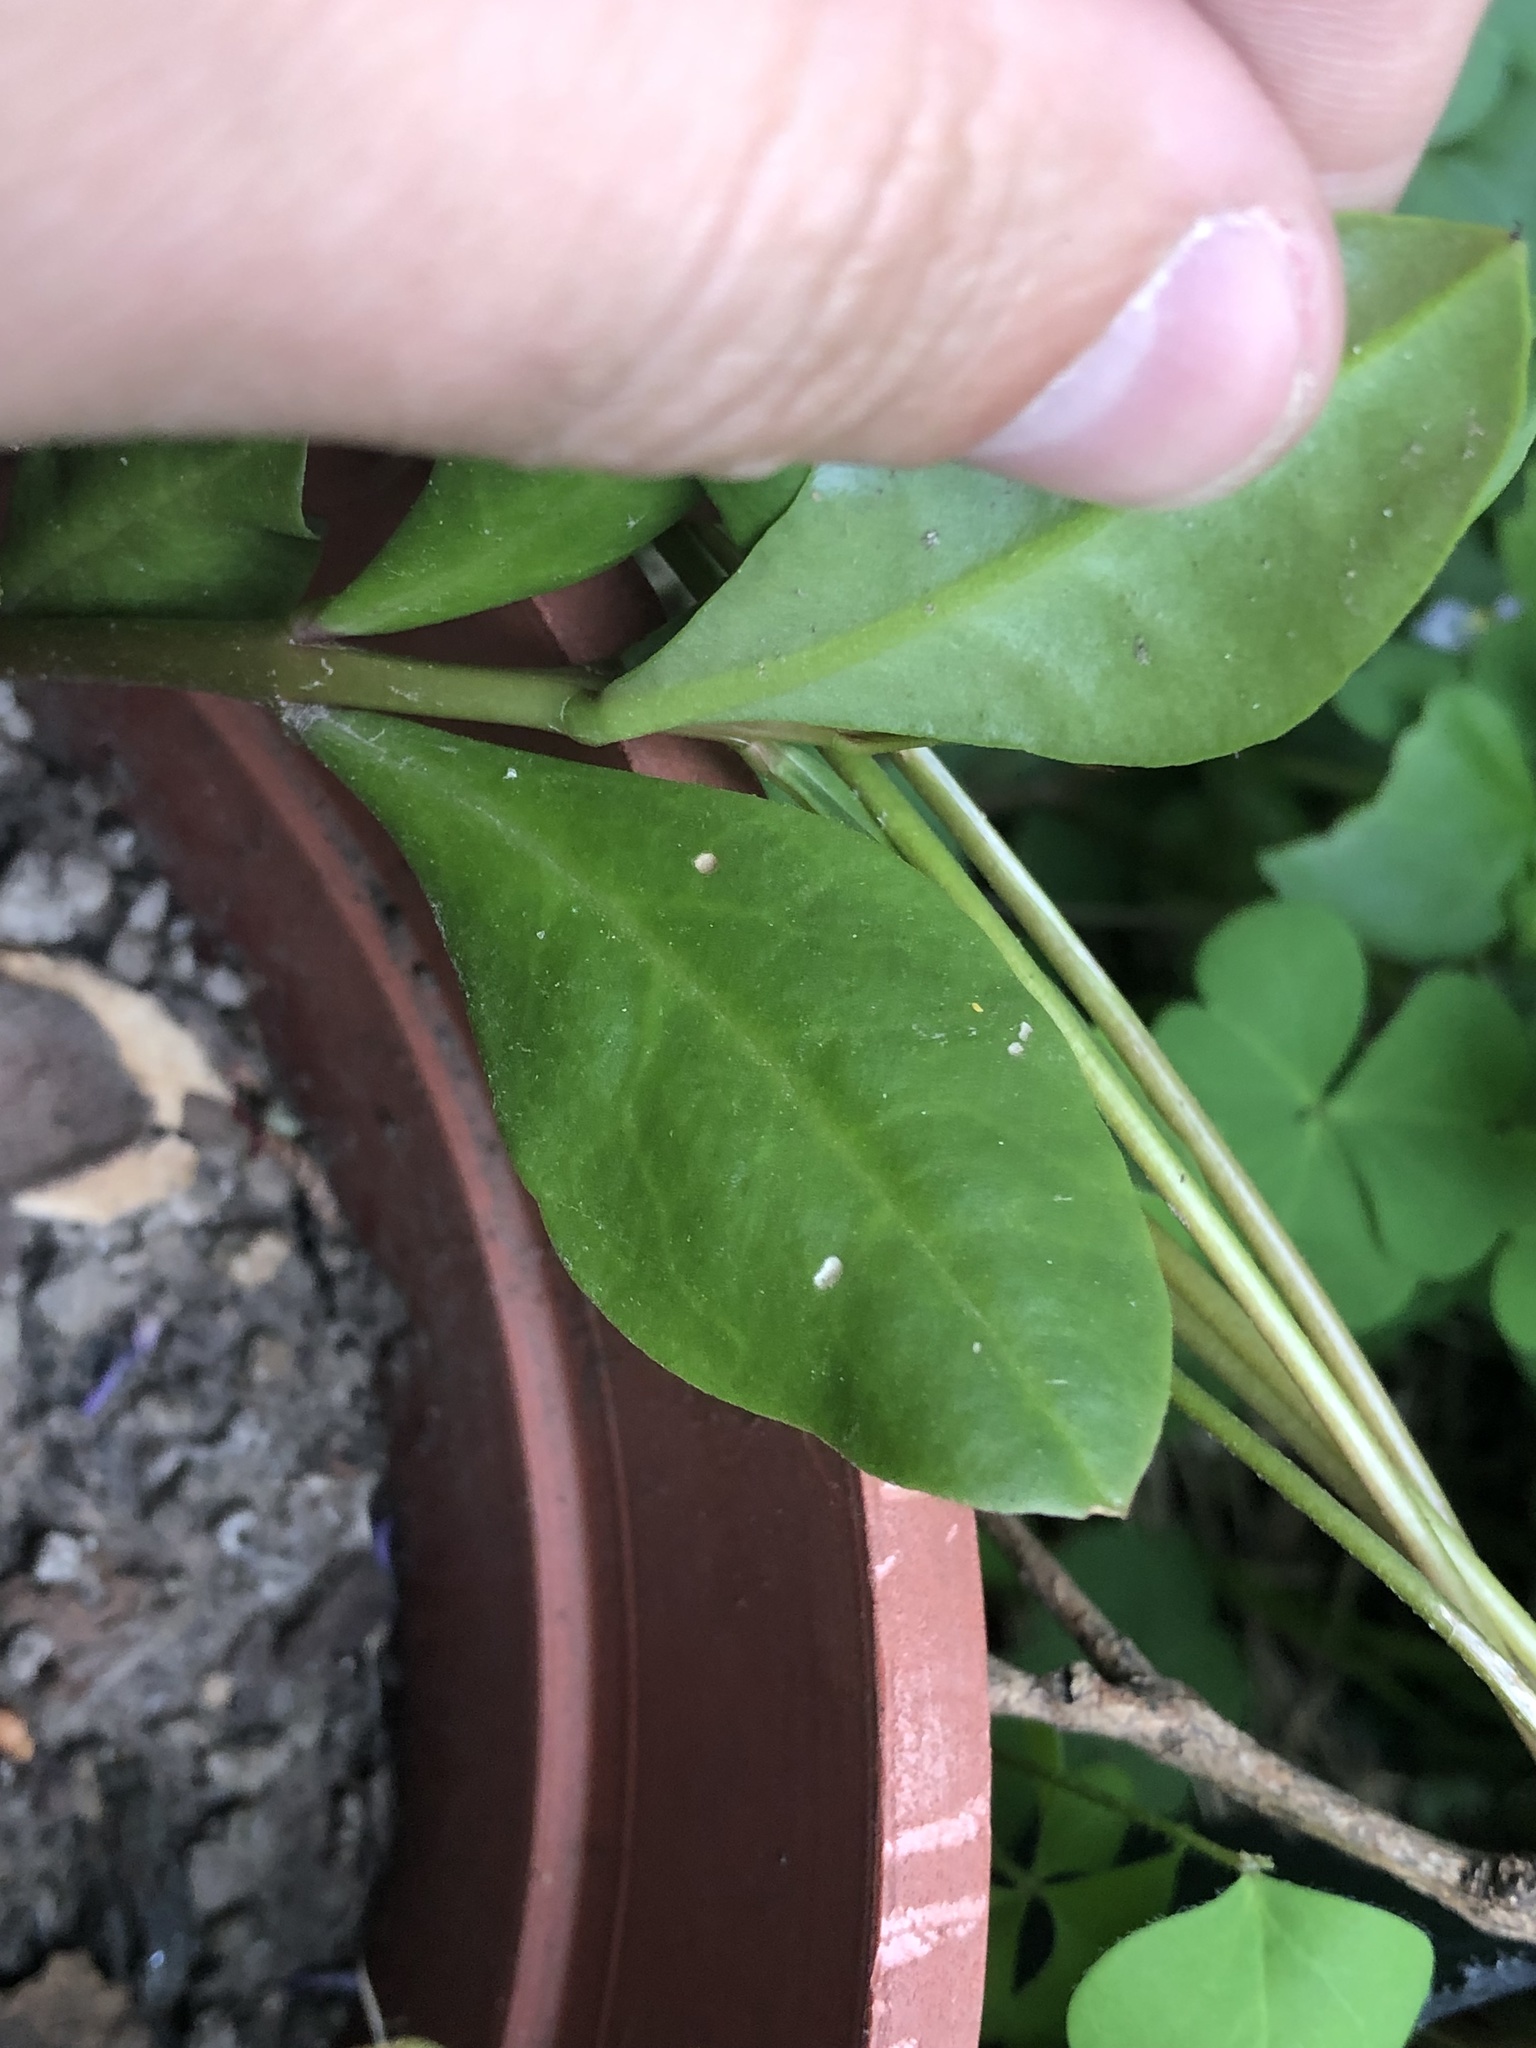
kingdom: Plantae
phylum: Tracheophyta
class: Magnoliopsida
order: Caryophyllales
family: Talinaceae
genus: Talinum
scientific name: Talinum paniculatum
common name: Jewels of opar
